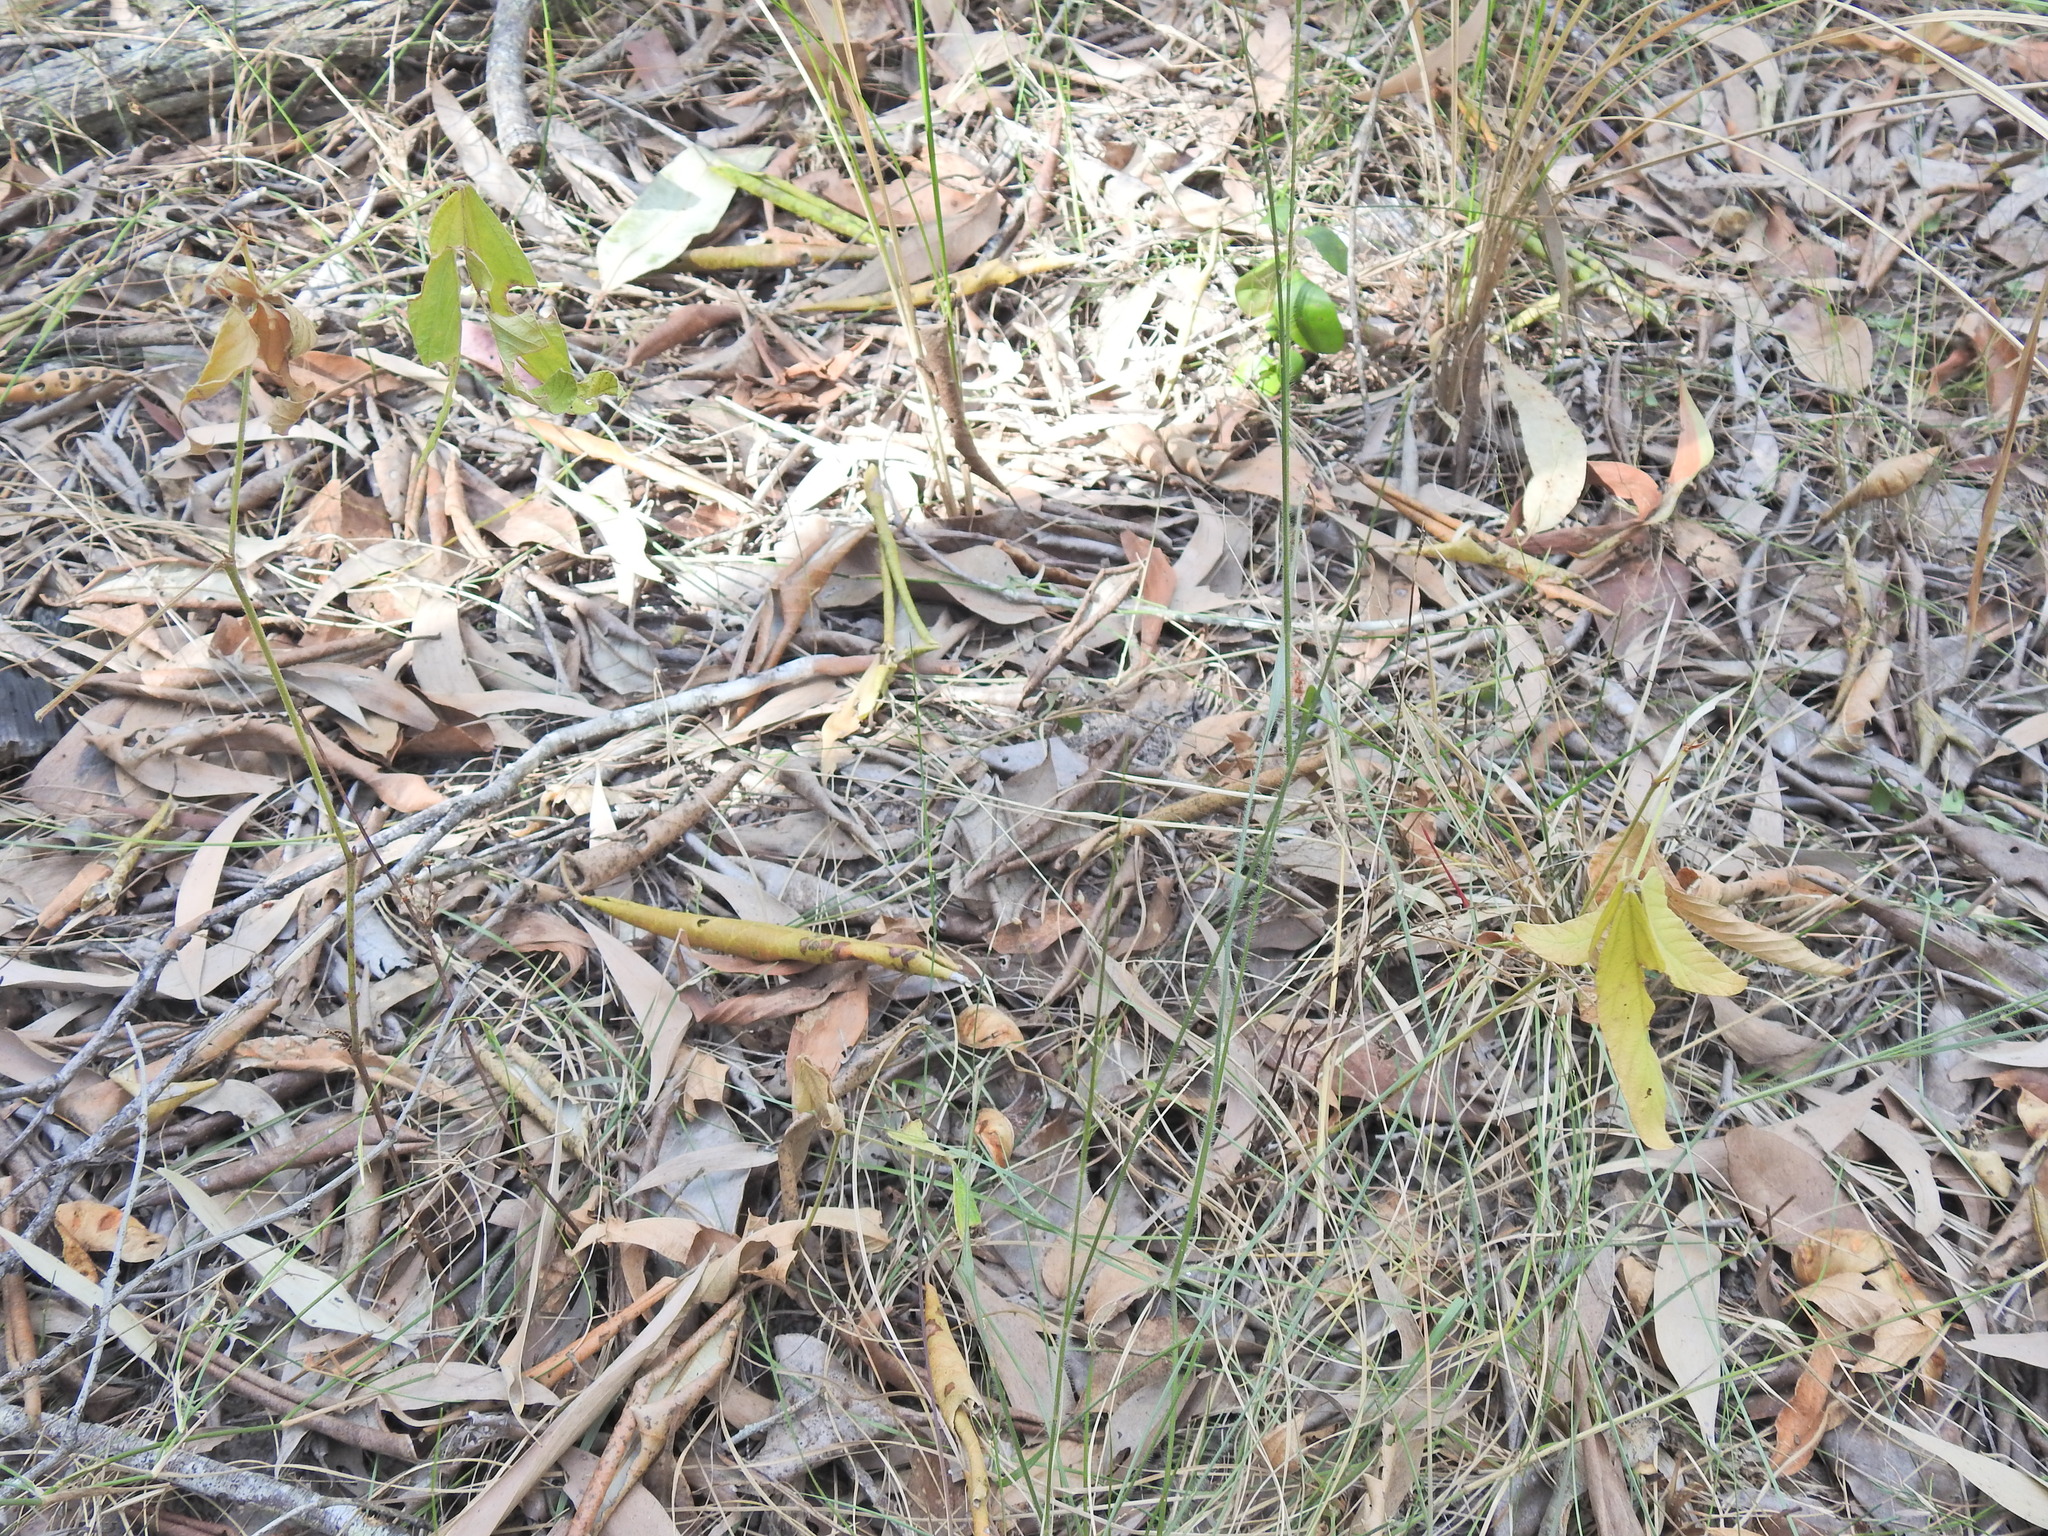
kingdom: Plantae
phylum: Tracheophyta
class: Magnoliopsida
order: Fabales
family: Fabaceae
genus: Flemingia
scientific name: Flemingia parviflora
